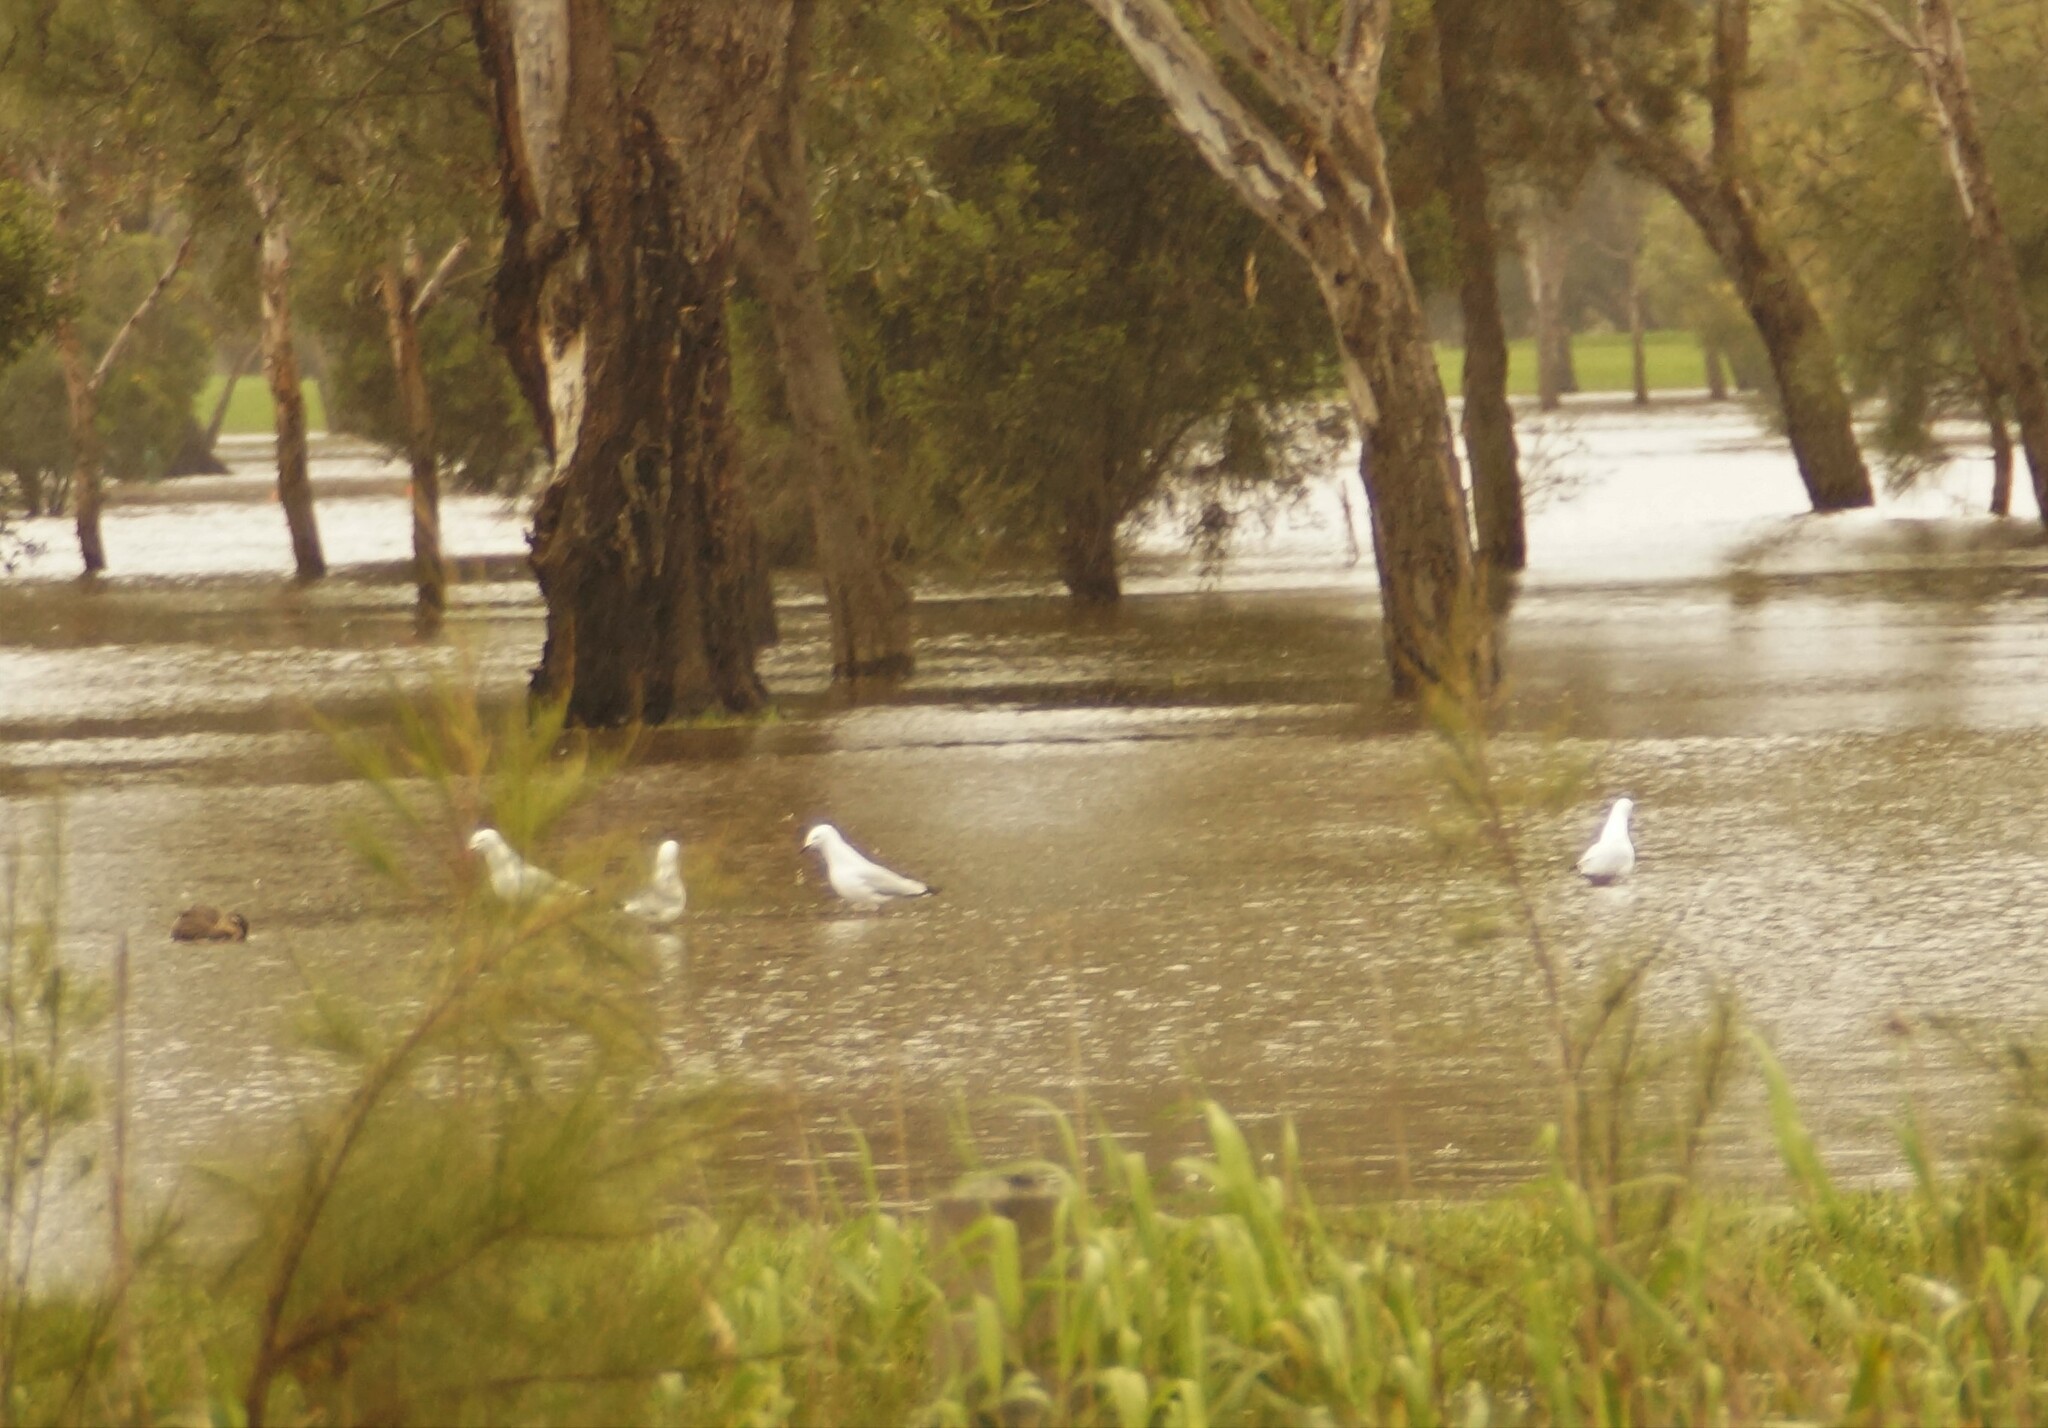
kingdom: Animalia
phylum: Chordata
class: Aves
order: Charadriiformes
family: Laridae
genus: Chroicocephalus
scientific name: Chroicocephalus novaehollandiae
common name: Silver gull
